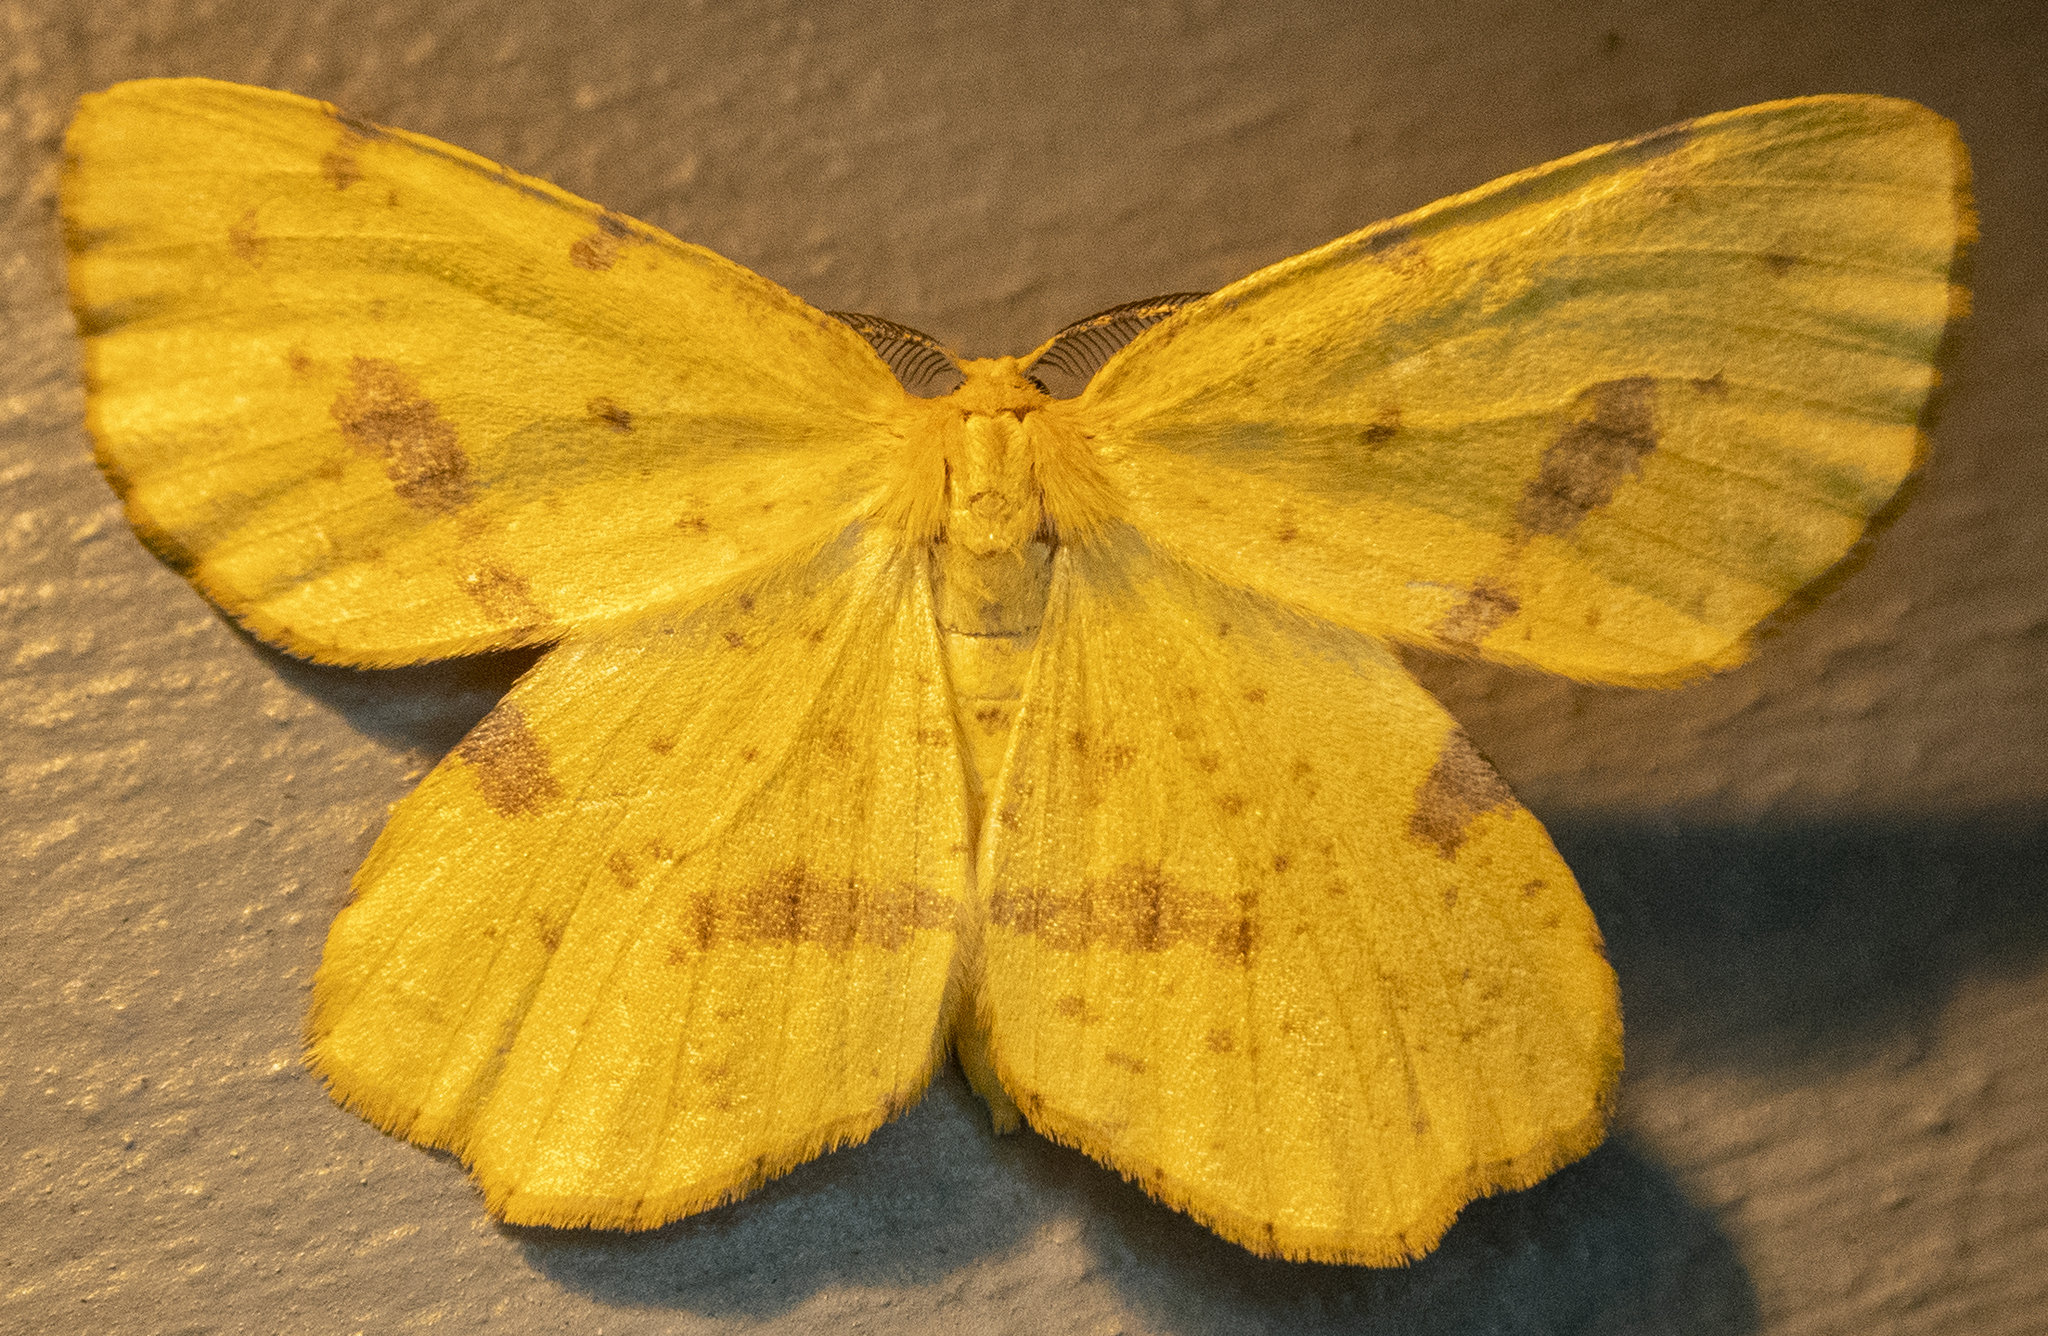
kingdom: Animalia
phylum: Arthropoda
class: Insecta
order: Lepidoptera
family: Geometridae
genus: Xanthotype
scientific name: Xanthotype
